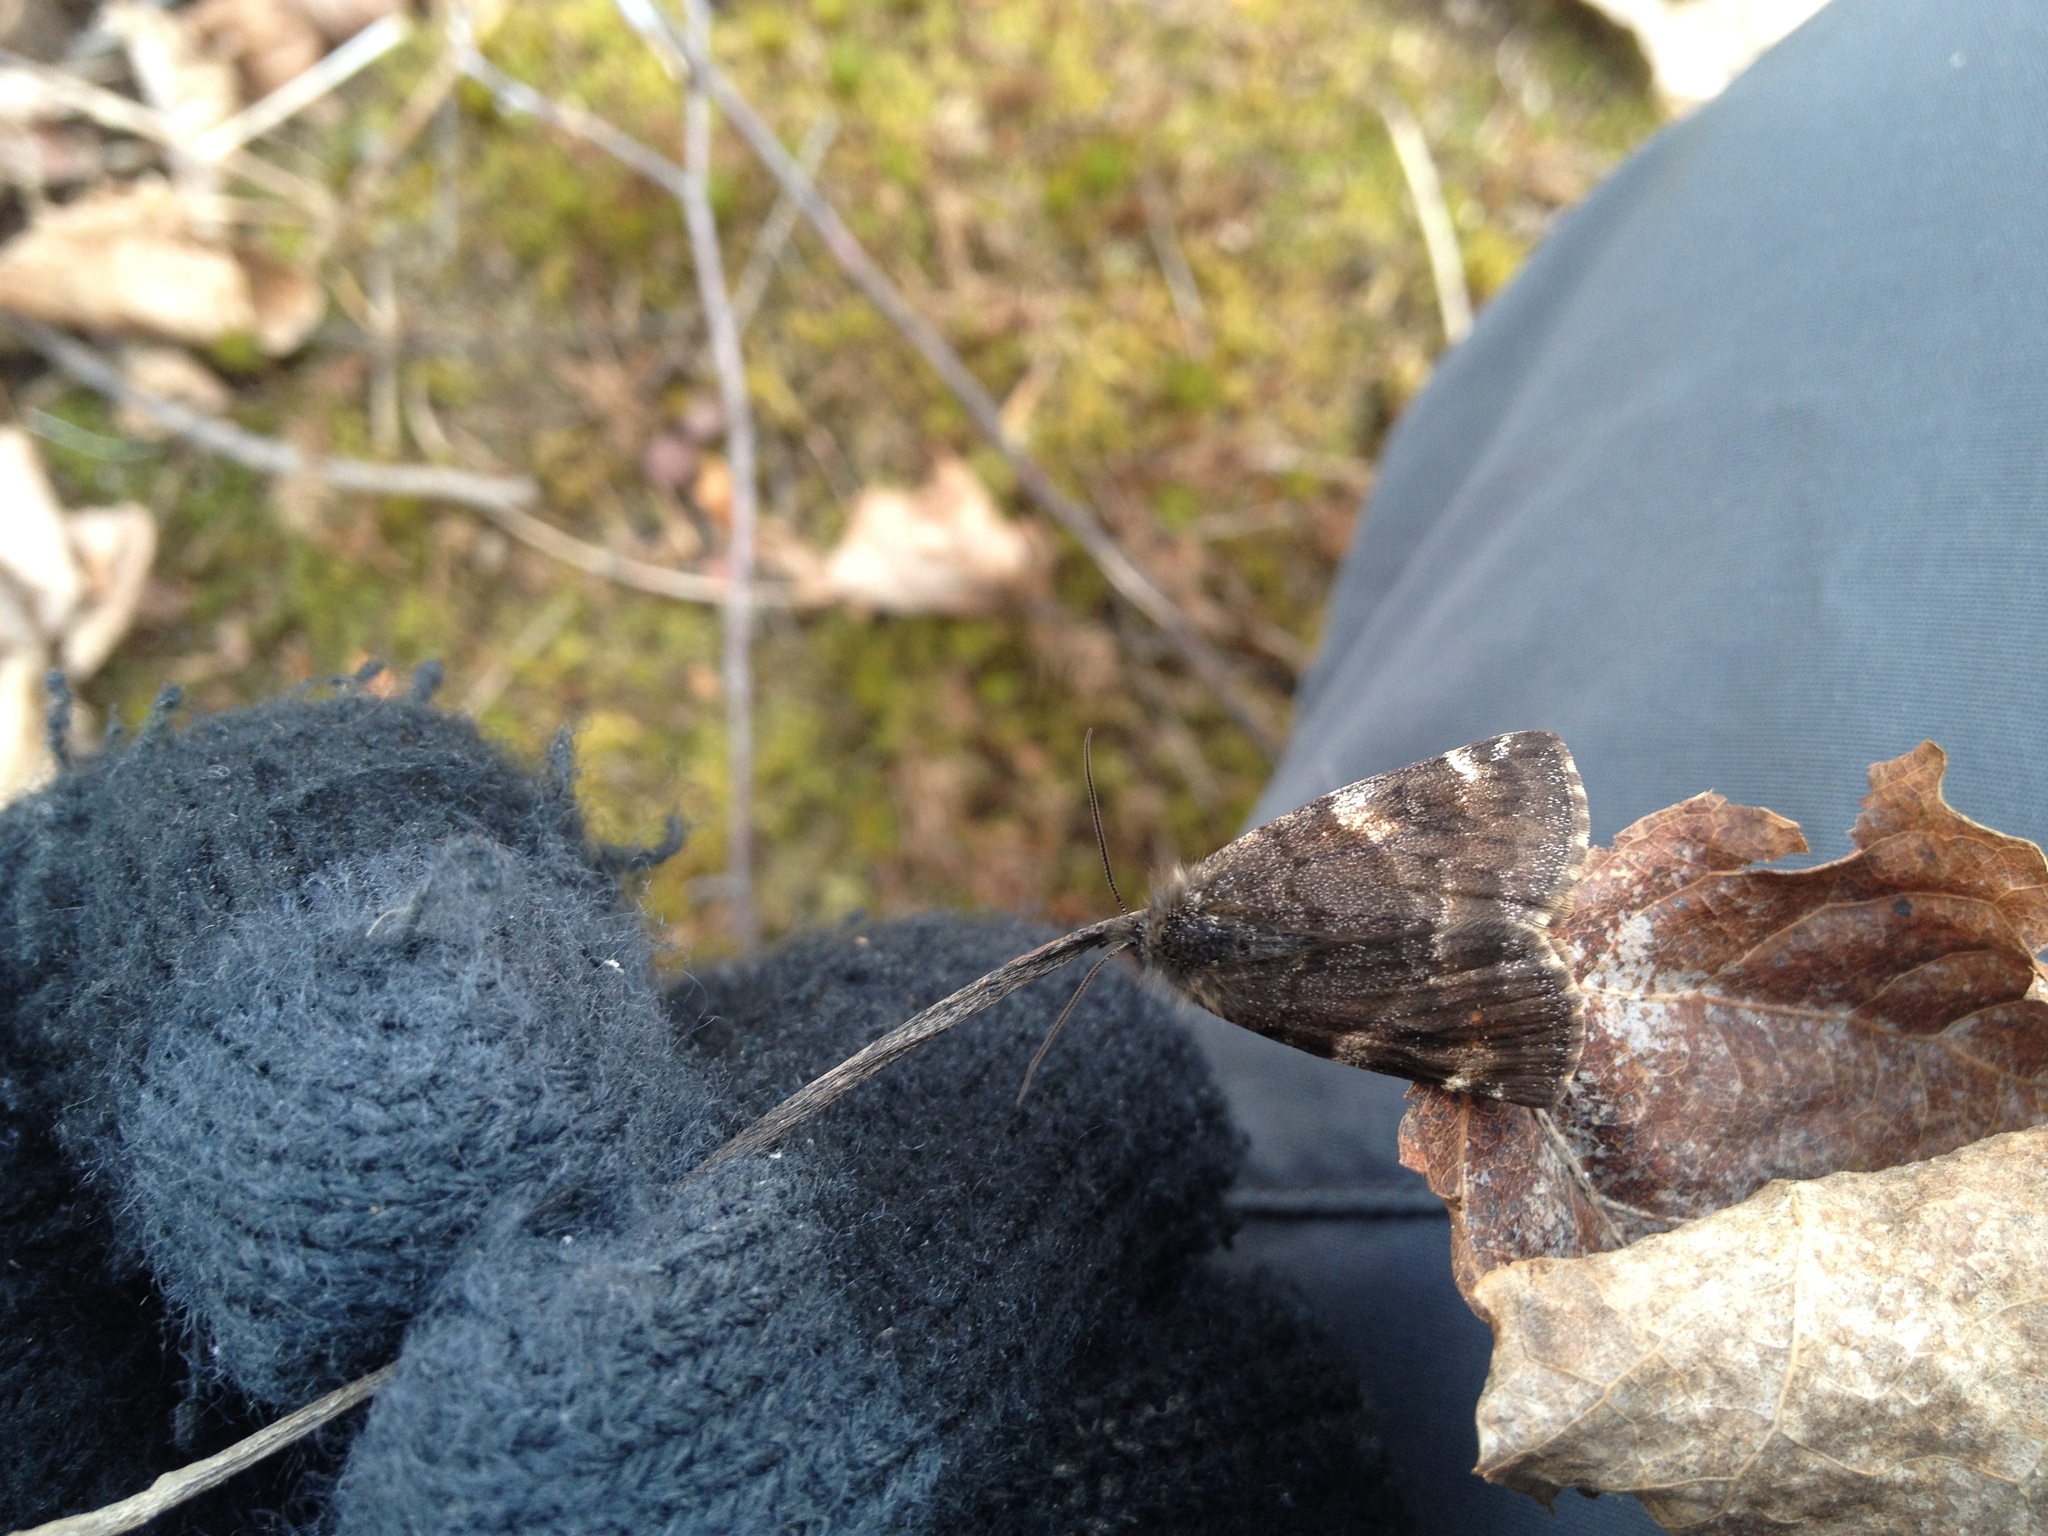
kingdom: Animalia
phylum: Arthropoda
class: Insecta
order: Lepidoptera
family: Geometridae
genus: Archiearis
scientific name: Archiearis infans
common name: First born geometer
